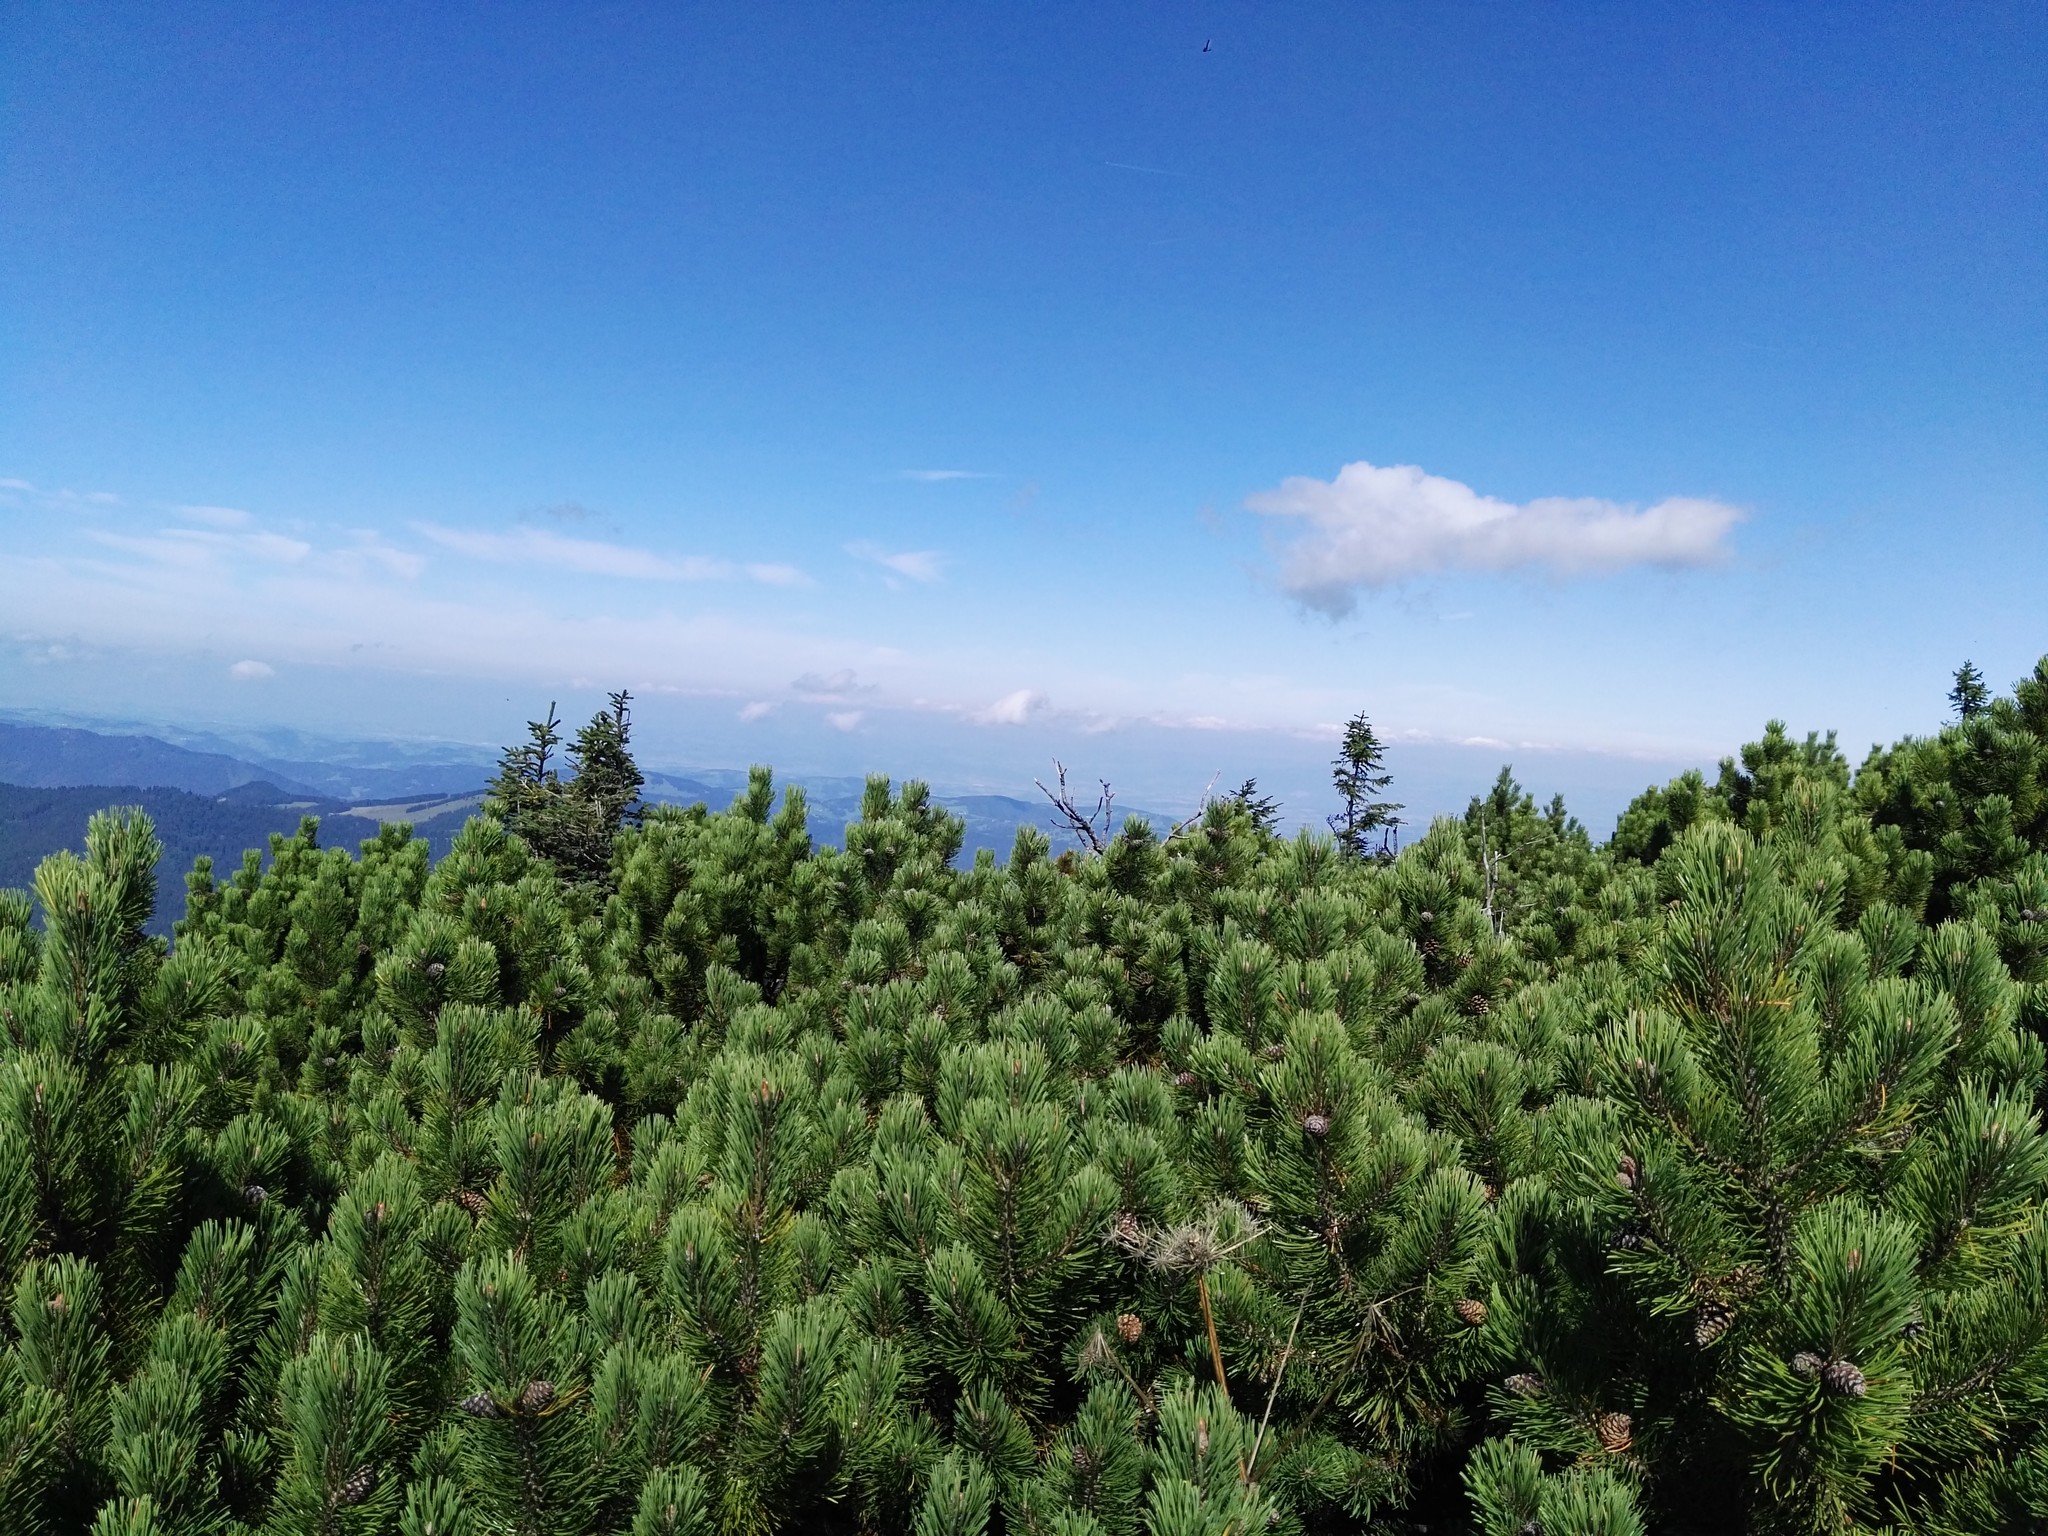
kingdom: Plantae
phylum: Tracheophyta
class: Pinopsida
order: Pinales
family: Pinaceae
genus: Pinus
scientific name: Pinus mugo
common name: Mugo pine
